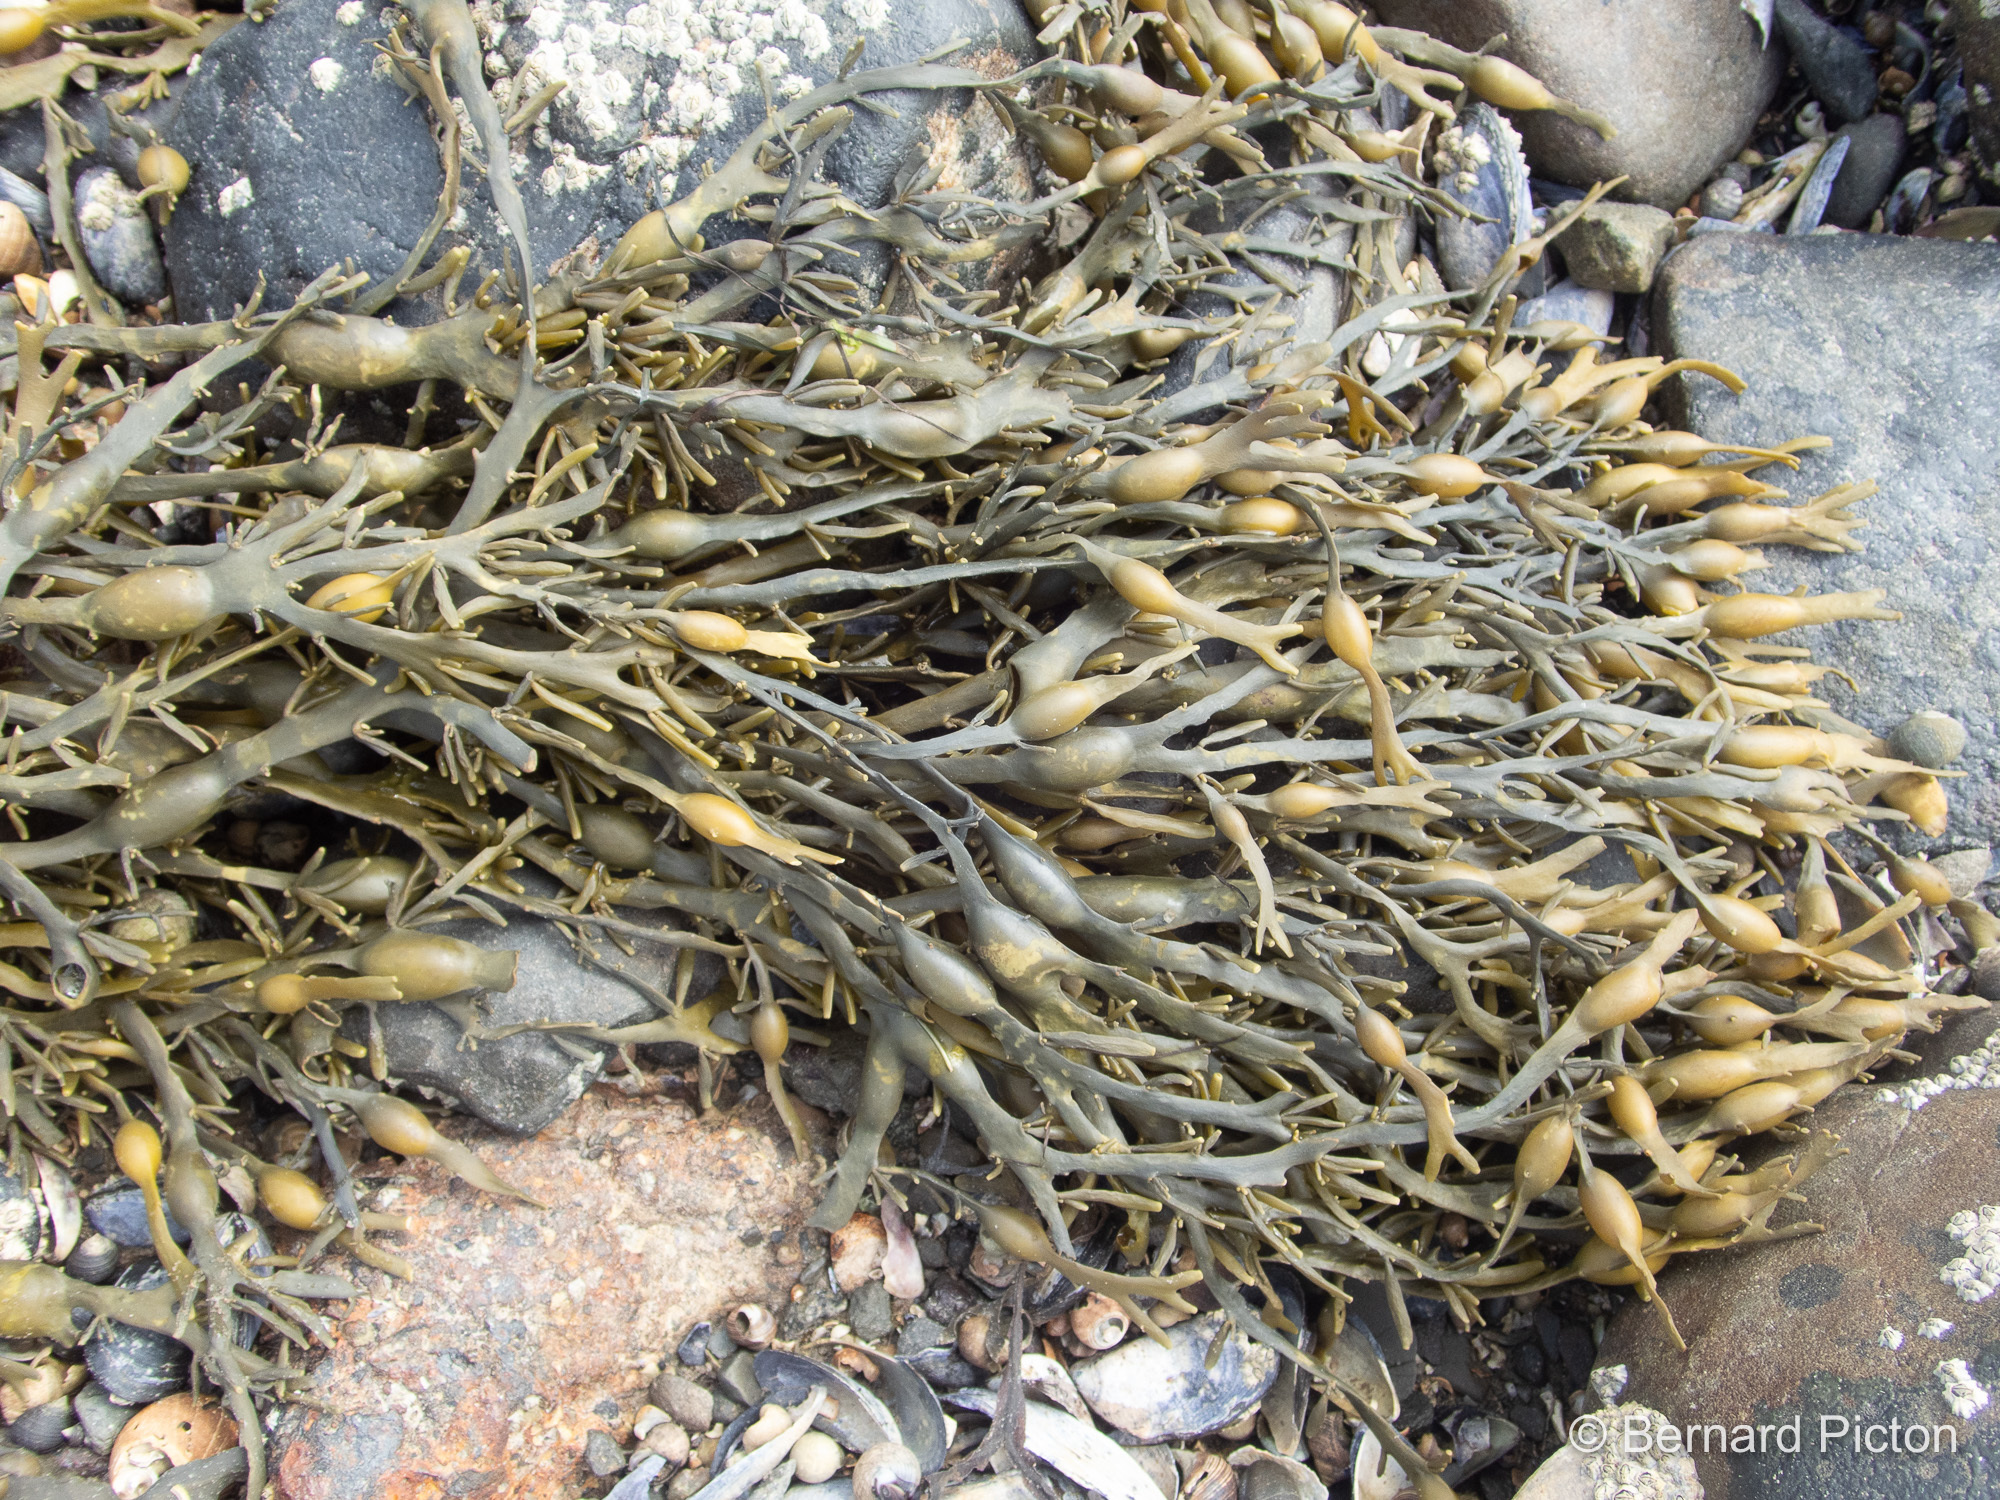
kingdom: Chromista
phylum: Ochrophyta
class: Phaeophyceae
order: Fucales
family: Fucaceae
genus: Ascophyllum
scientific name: Ascophyllum nodosum
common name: Knotted wrack
